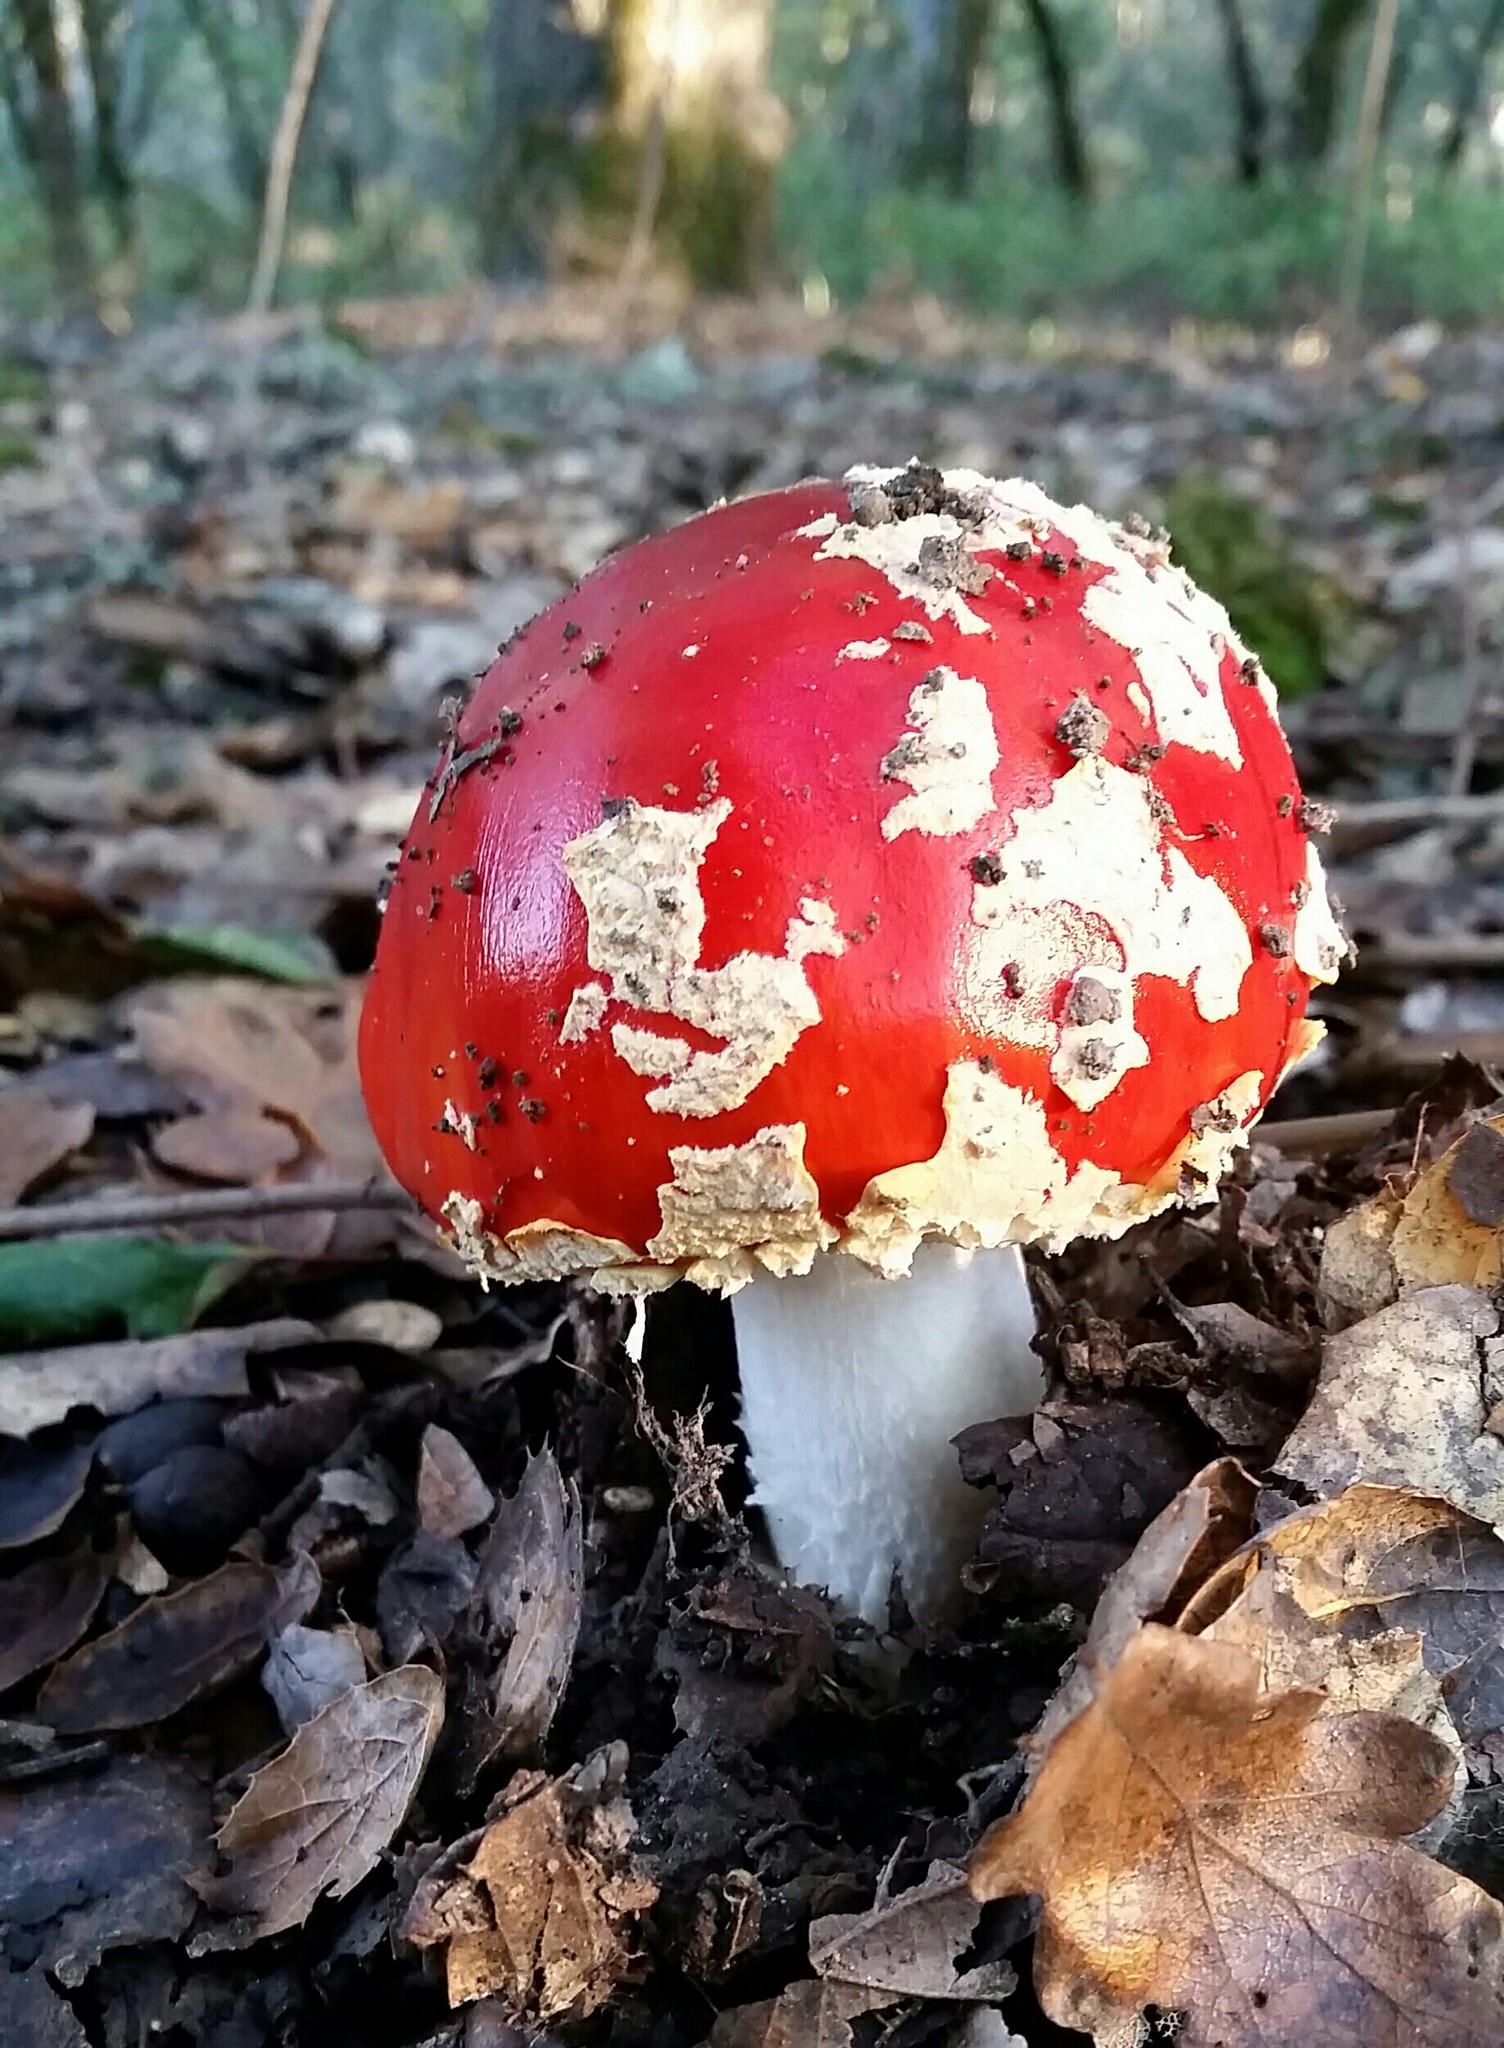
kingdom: Fungi
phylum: Basidiomycota
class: Agaricomycetes
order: Agaricales
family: Amanitaceae
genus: Amanita
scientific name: Amanita muscaria
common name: Fly agaric
